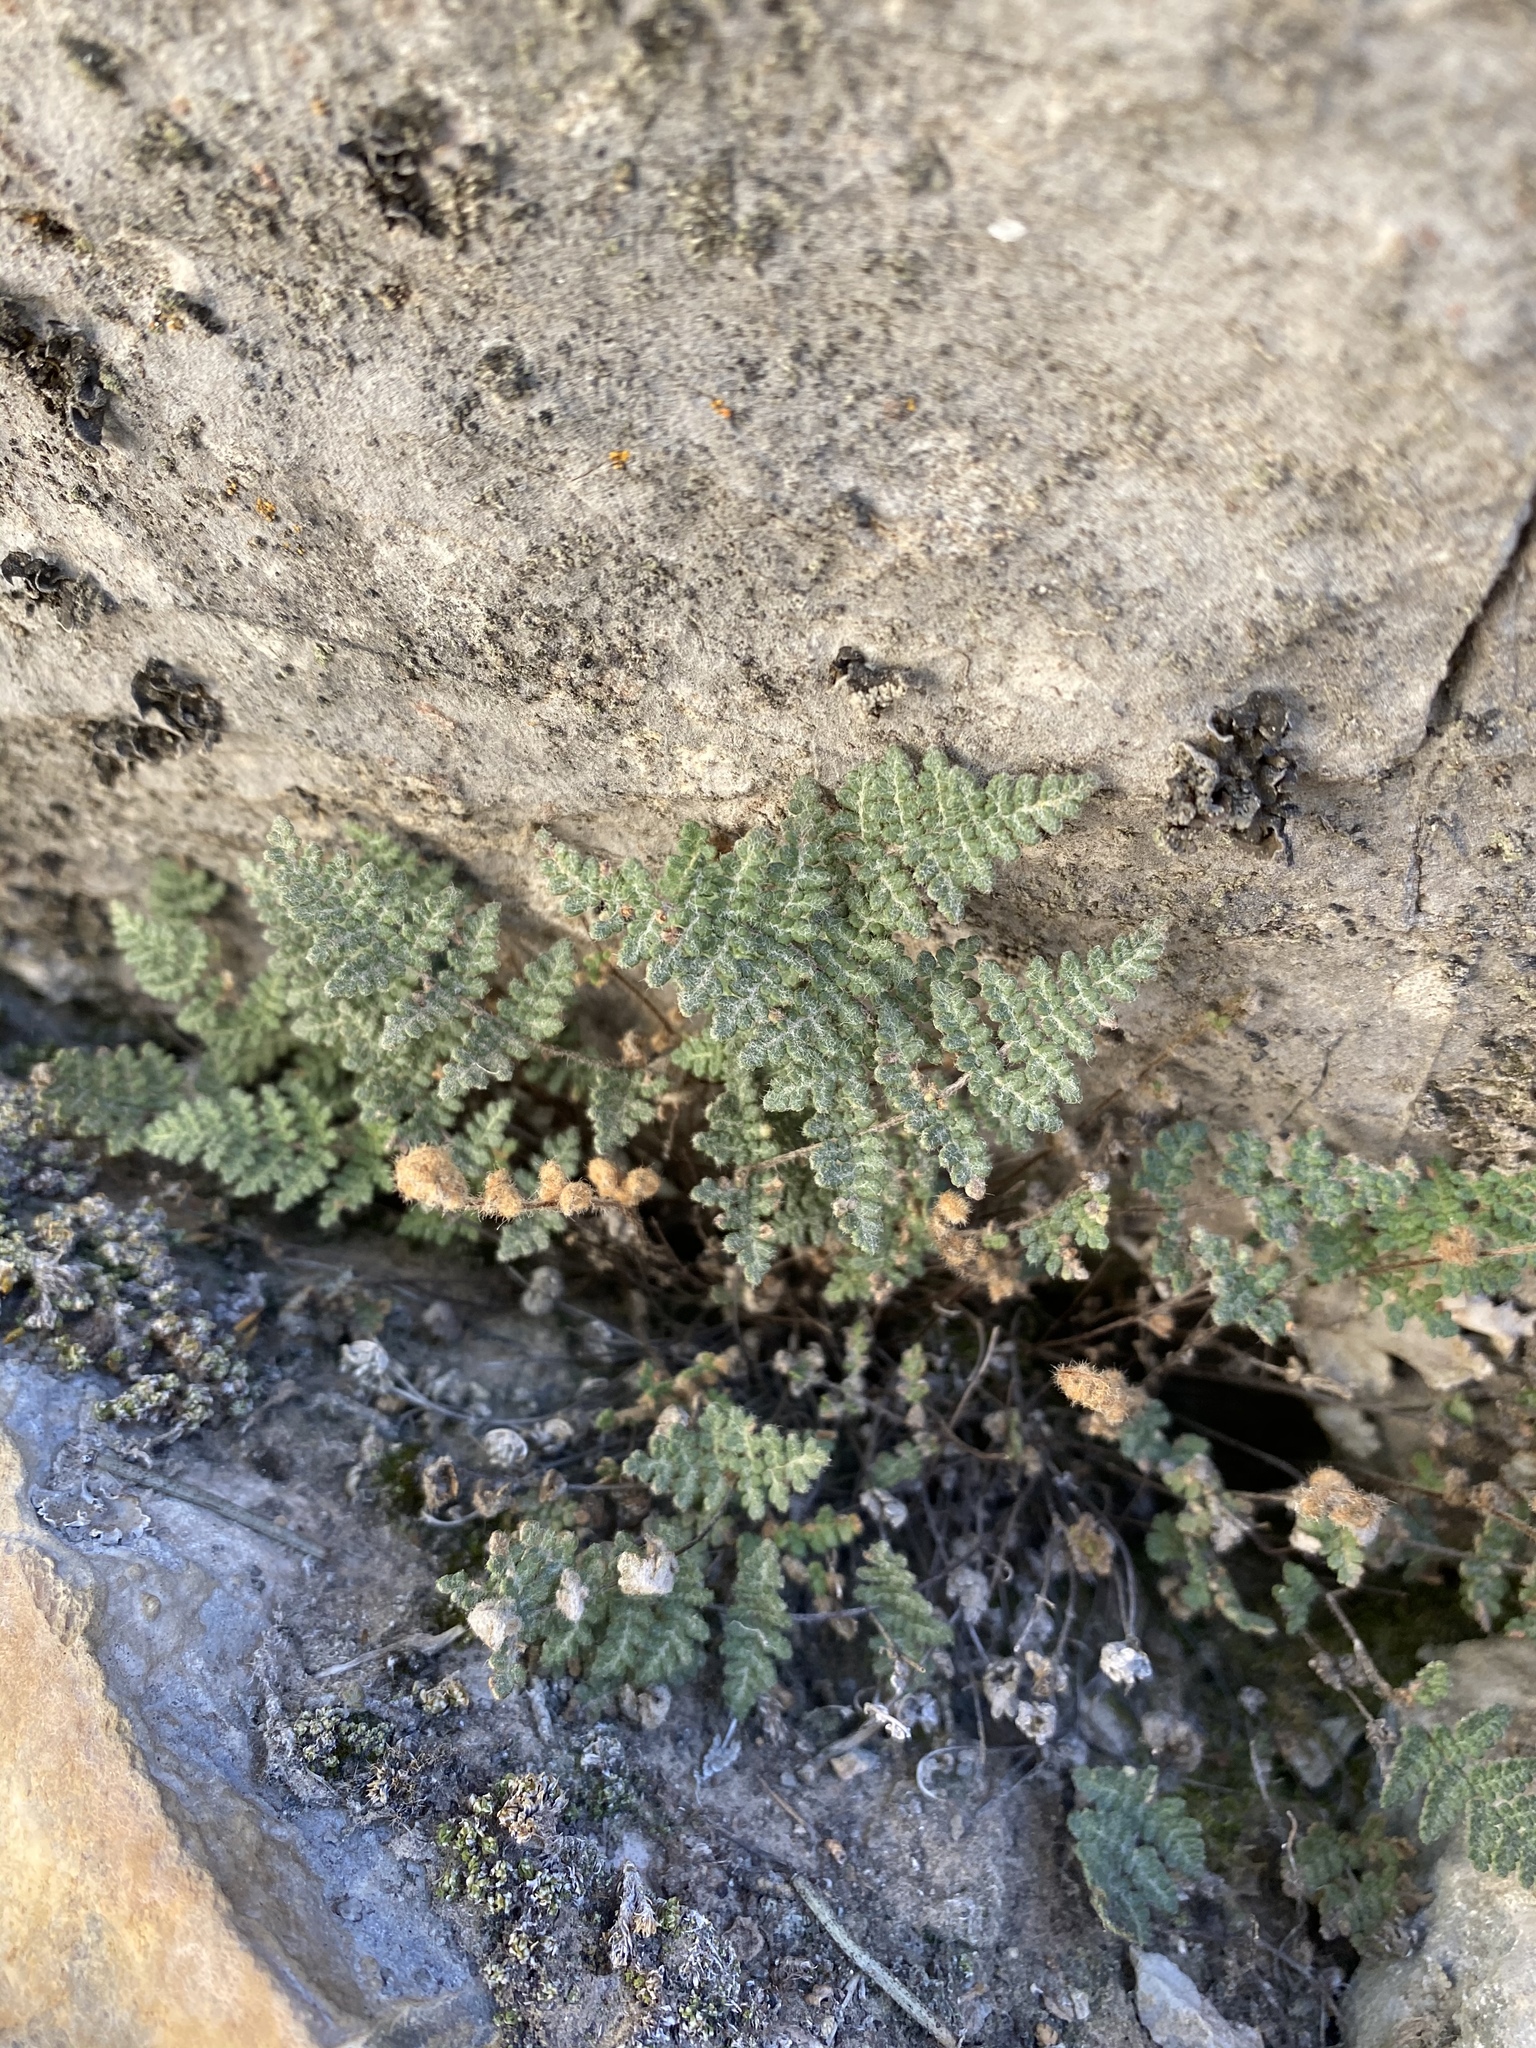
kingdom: Plantae
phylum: Tracheophyta
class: Polypodiopsida
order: Polypodiales
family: Pteridaceae
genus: Myriopteris
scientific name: Myriopteris gracilis
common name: Fee's lip fern
